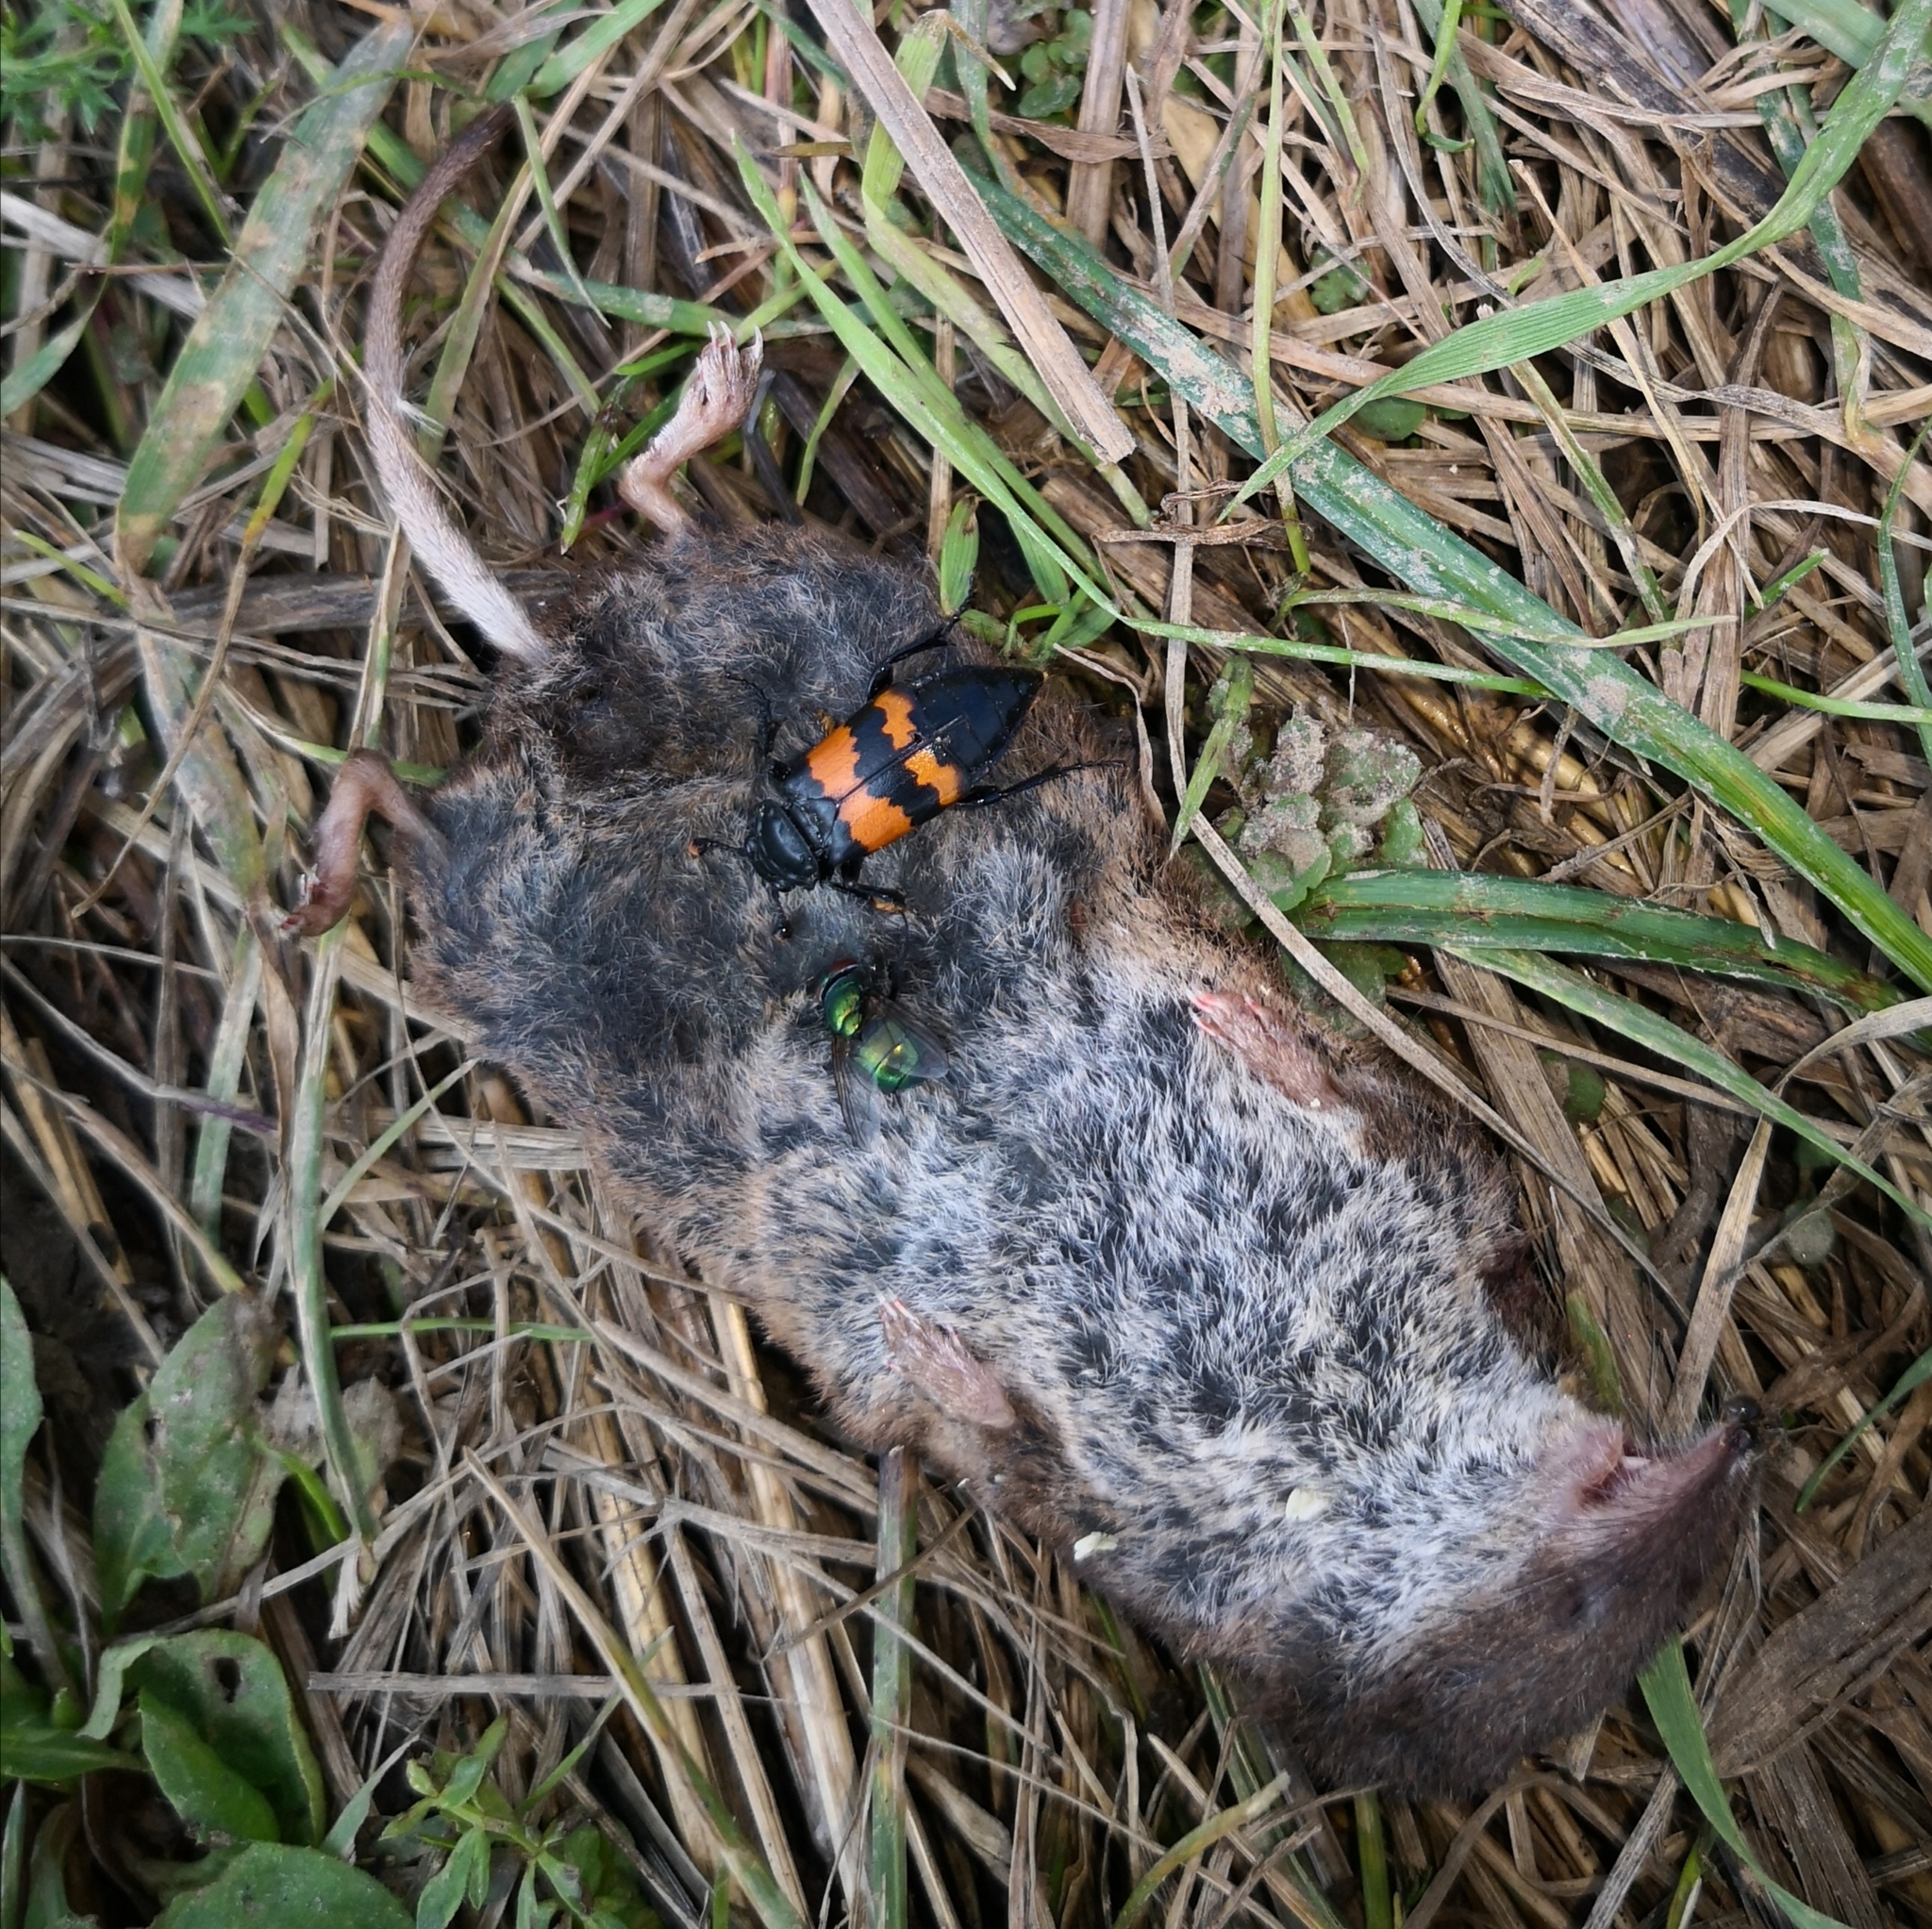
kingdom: Animalia
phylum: Arthropoda
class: Insecta
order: Coleoptera
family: Staphylinidae
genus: Nicrophorus
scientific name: Nicrophorus investigator
